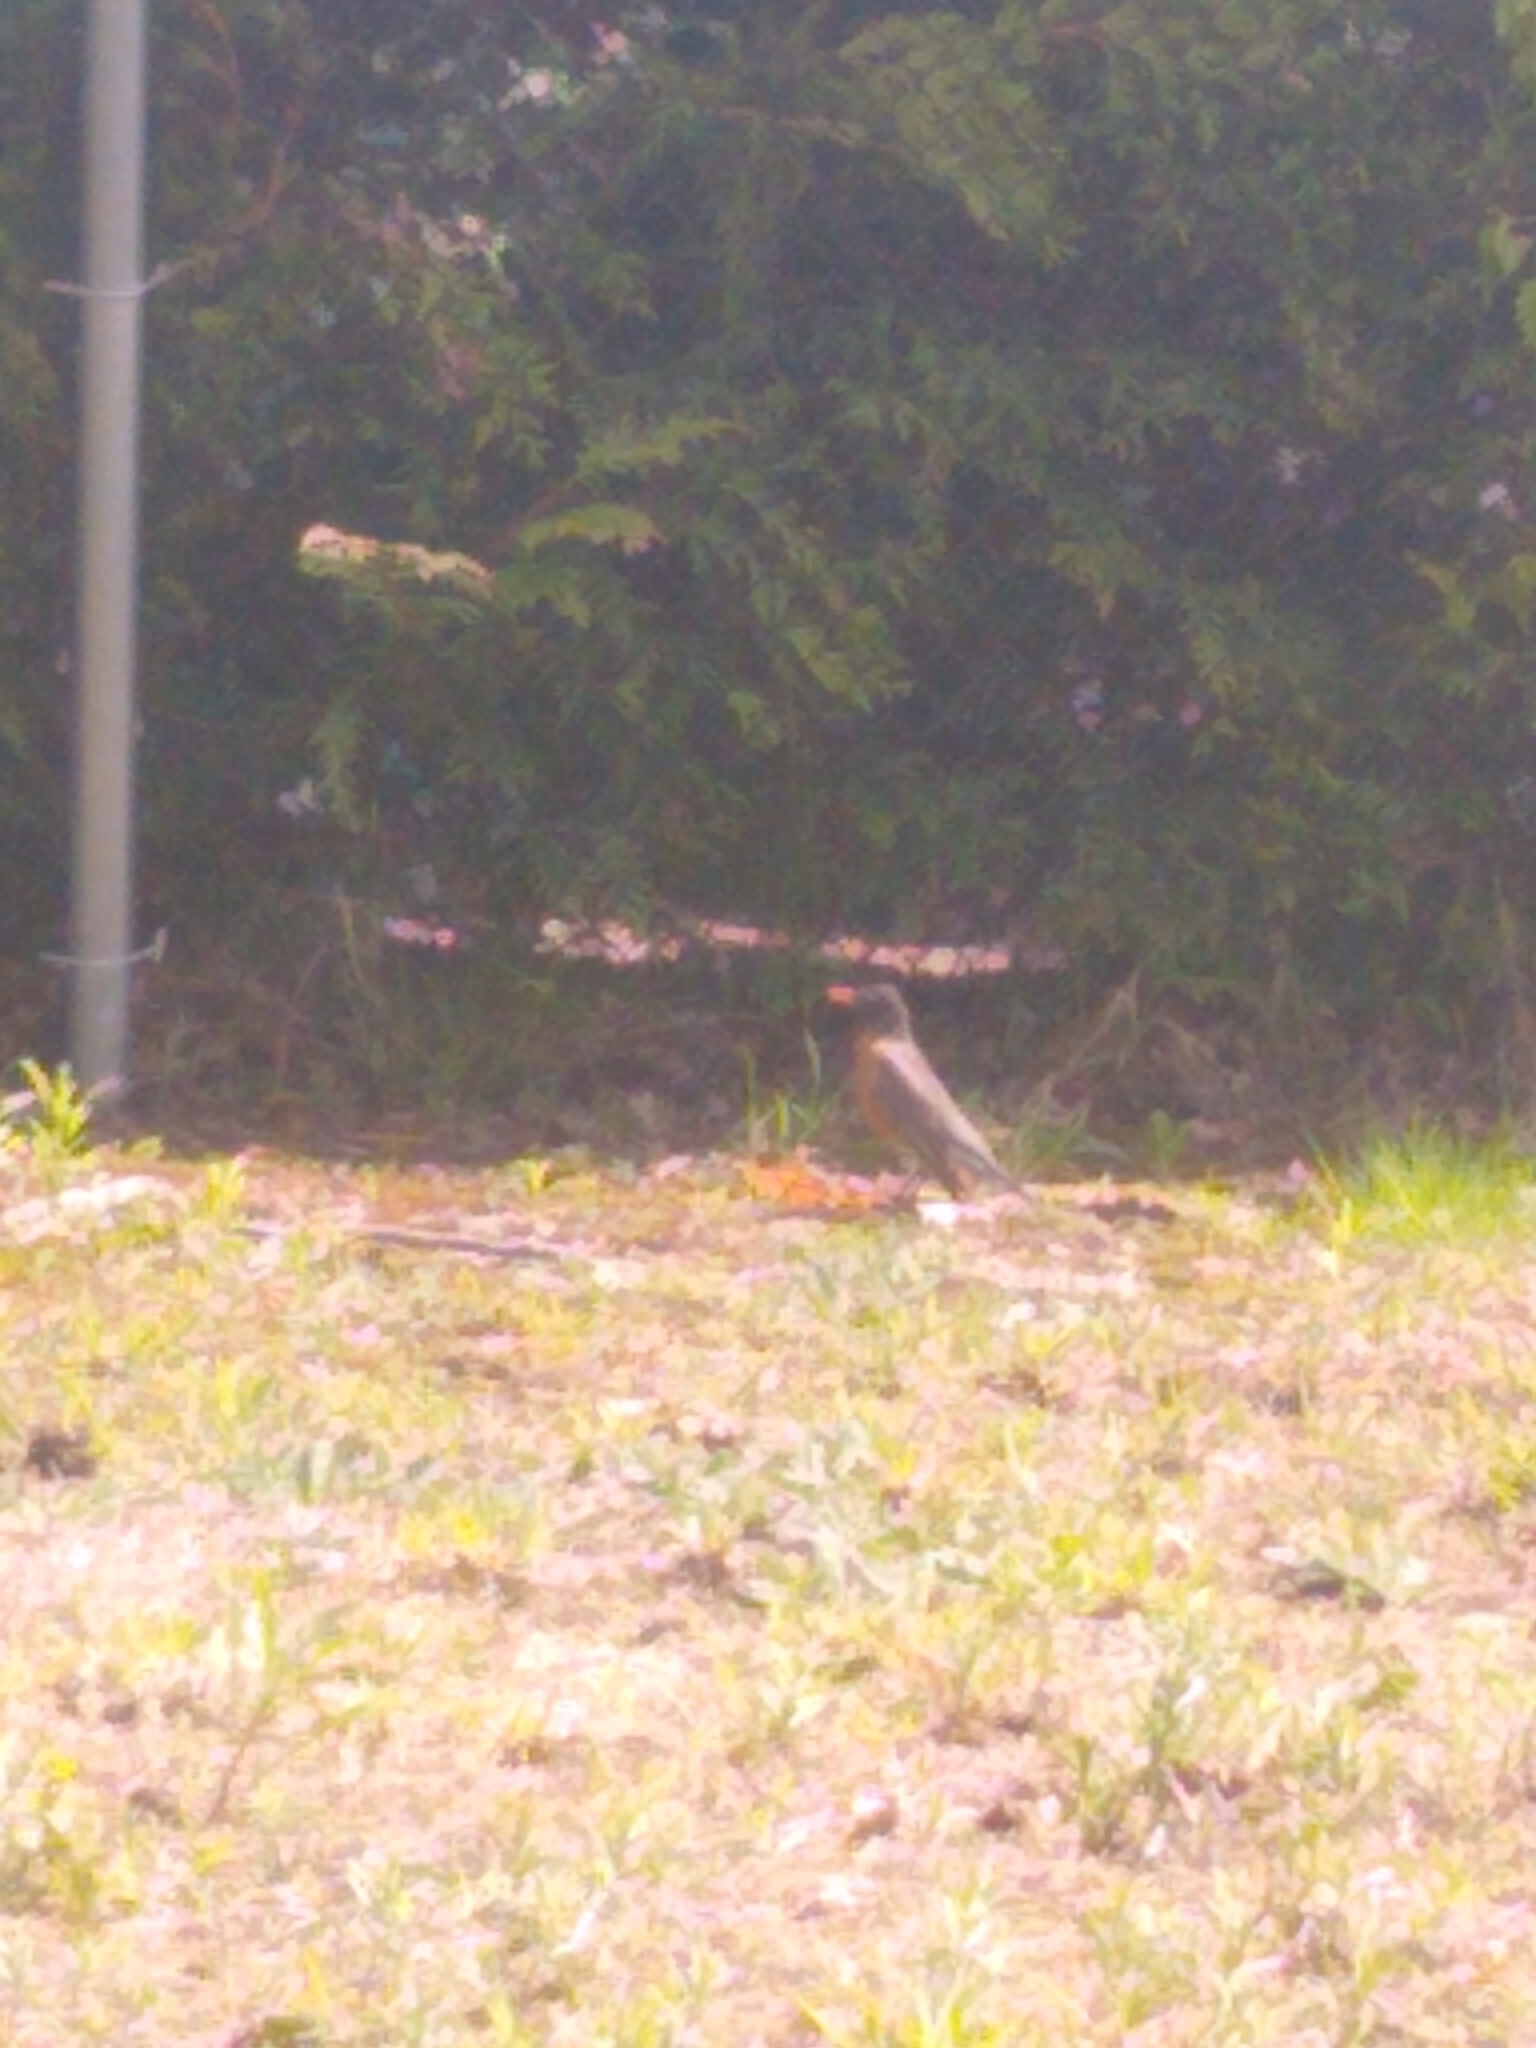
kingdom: Animalia
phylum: Chordata
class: Aves
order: Passeriformes
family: Turdidae
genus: Turdus
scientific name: Turdus migratorius
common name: American robin
